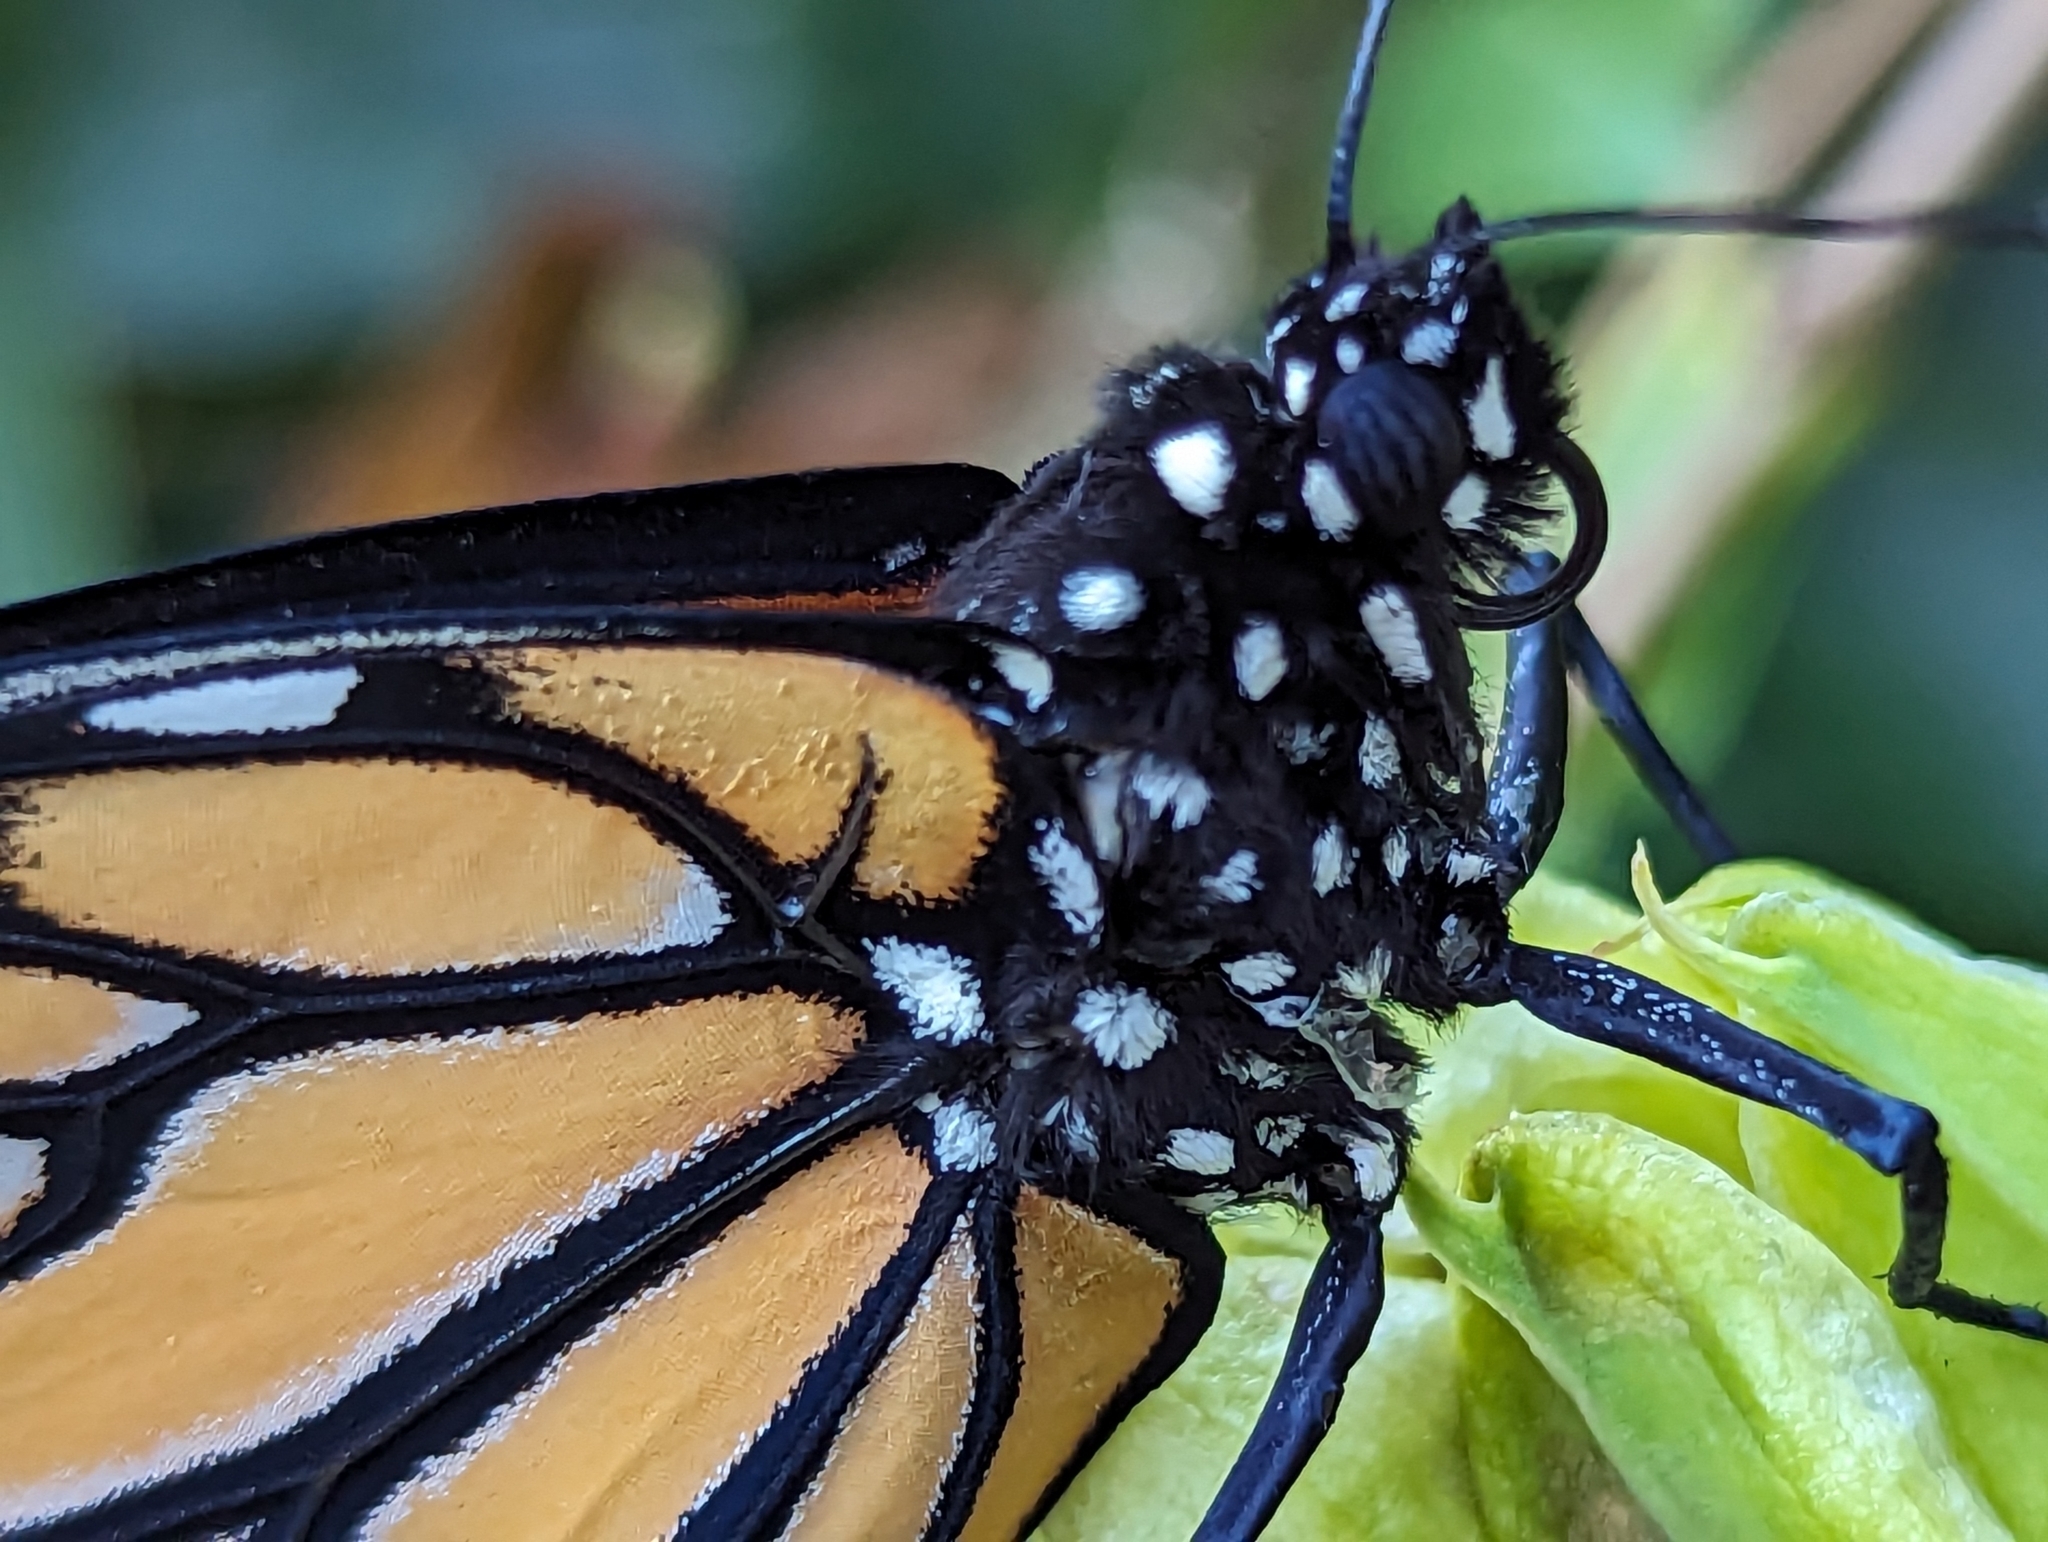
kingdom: Animalia
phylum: Arthropoda
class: Insecta
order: Lepidoptera
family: Nymphalidae
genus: Danaus
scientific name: Danaus plexippus
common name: Monarch
